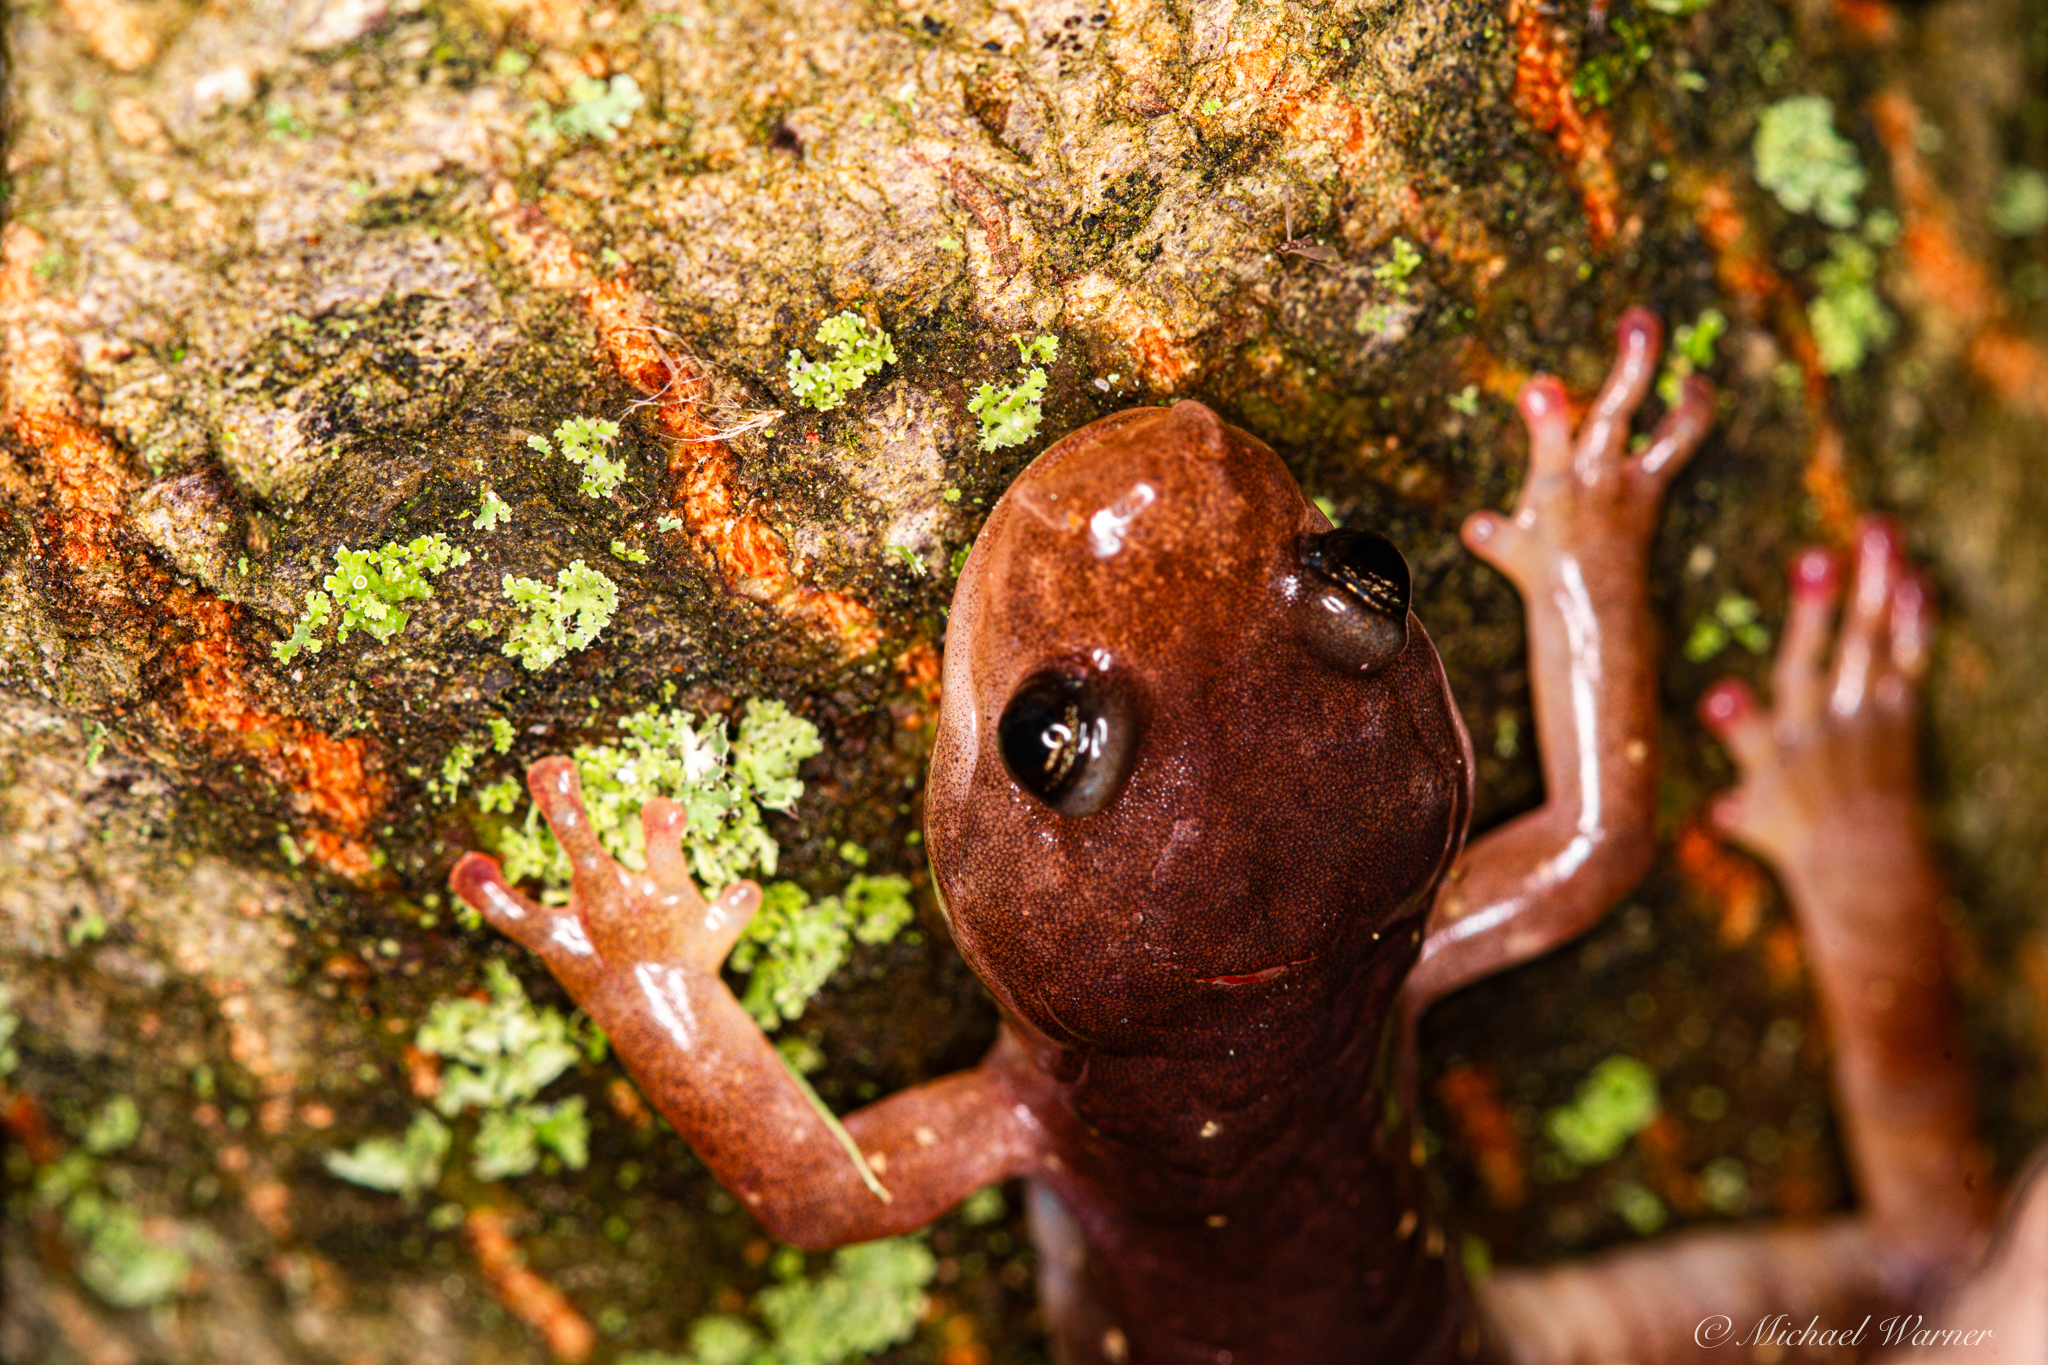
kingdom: Animalia
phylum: Chordata
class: Amphibia
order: Caudata
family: Plethodontidae
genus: Aneides
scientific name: Aneides lugubris
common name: Arboreal salamander
